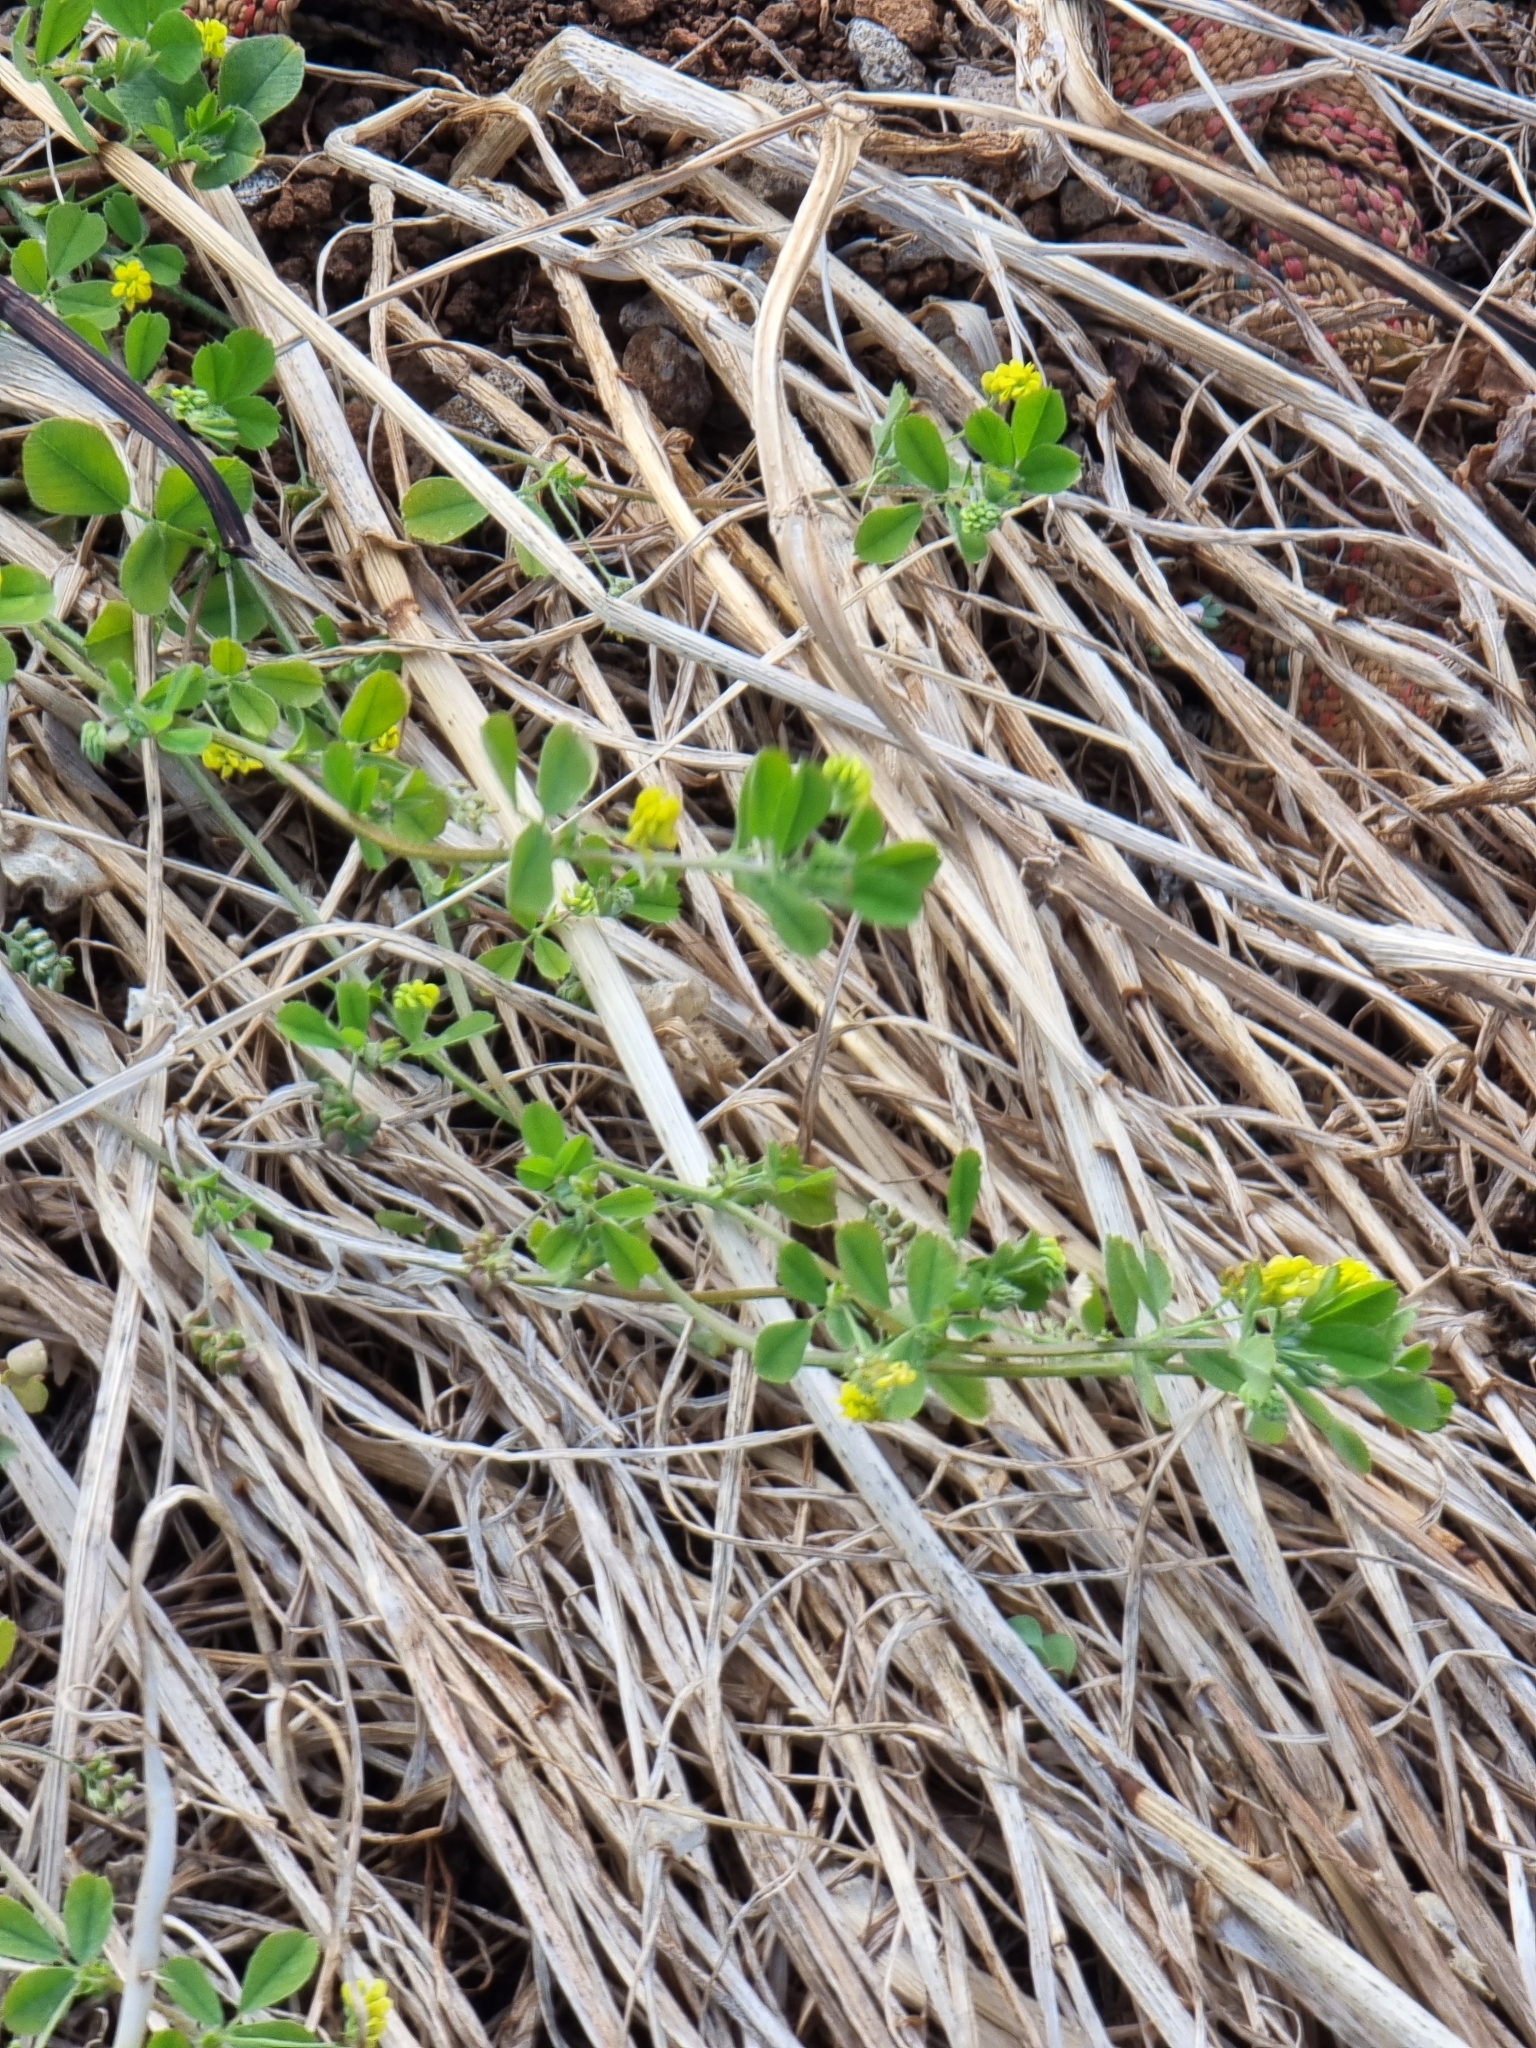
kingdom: Plantae
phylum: Tracheophyta
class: Magnoliopsida
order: Fabales
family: Fabaceae
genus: Medicago
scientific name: Medicago lupulina
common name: Black medick
